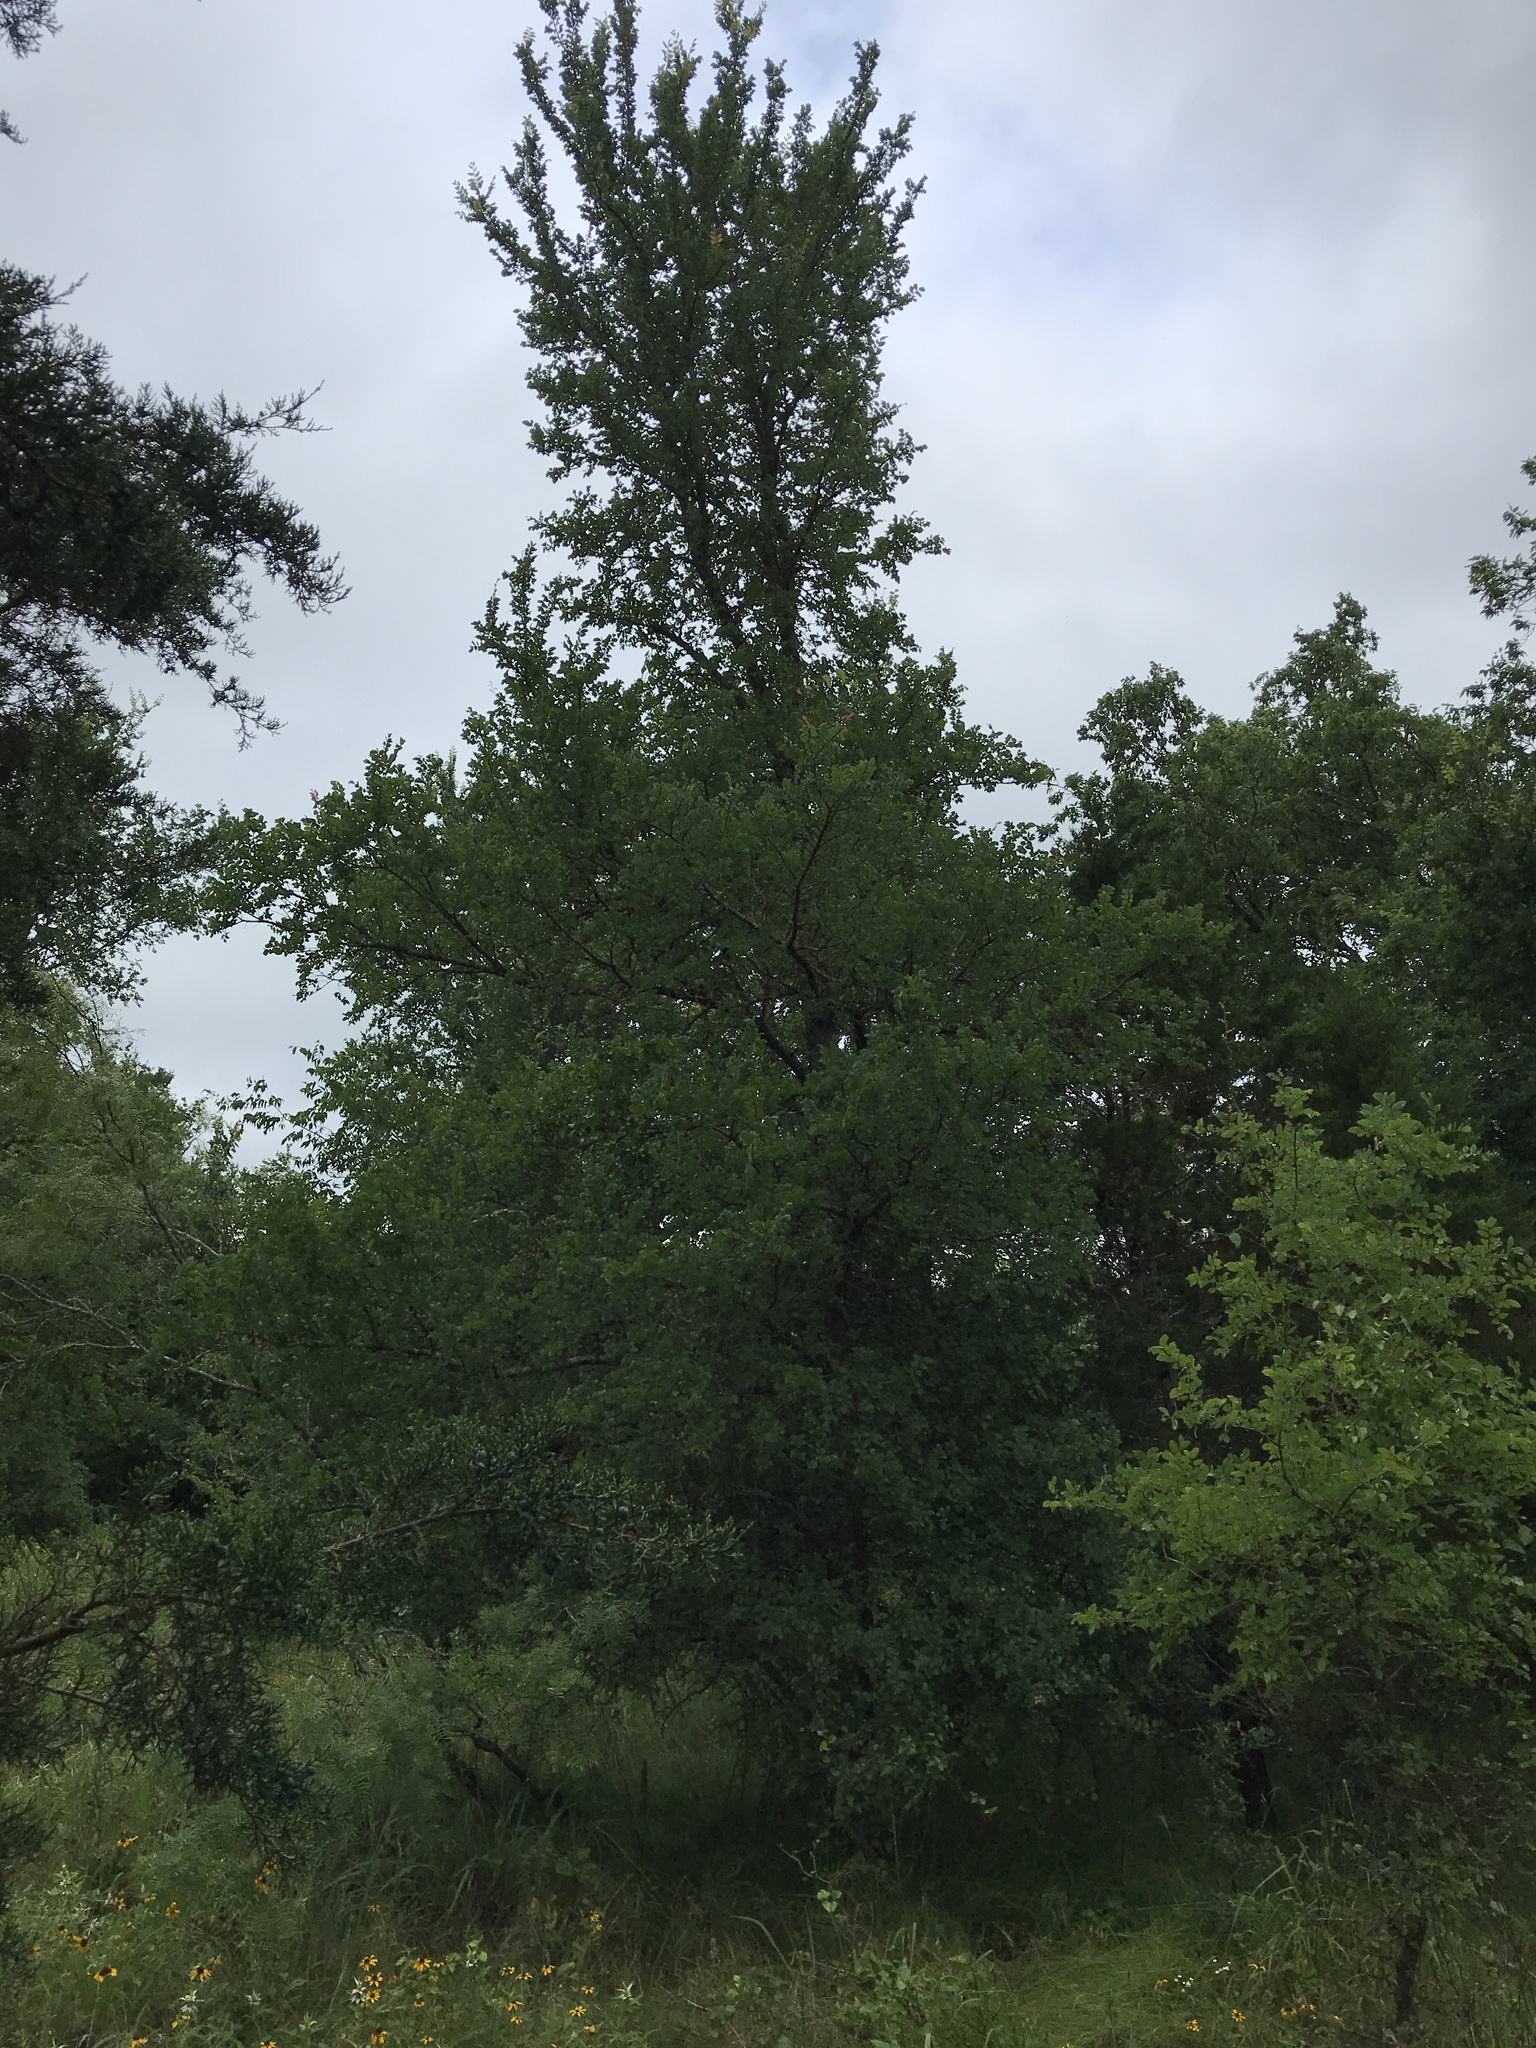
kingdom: Plantae
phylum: Tracheophyta
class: Magnoliopsida
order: Rosales
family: Ulmaceae
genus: Ulmus
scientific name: Ulmus crassifolia
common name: Basket elm
